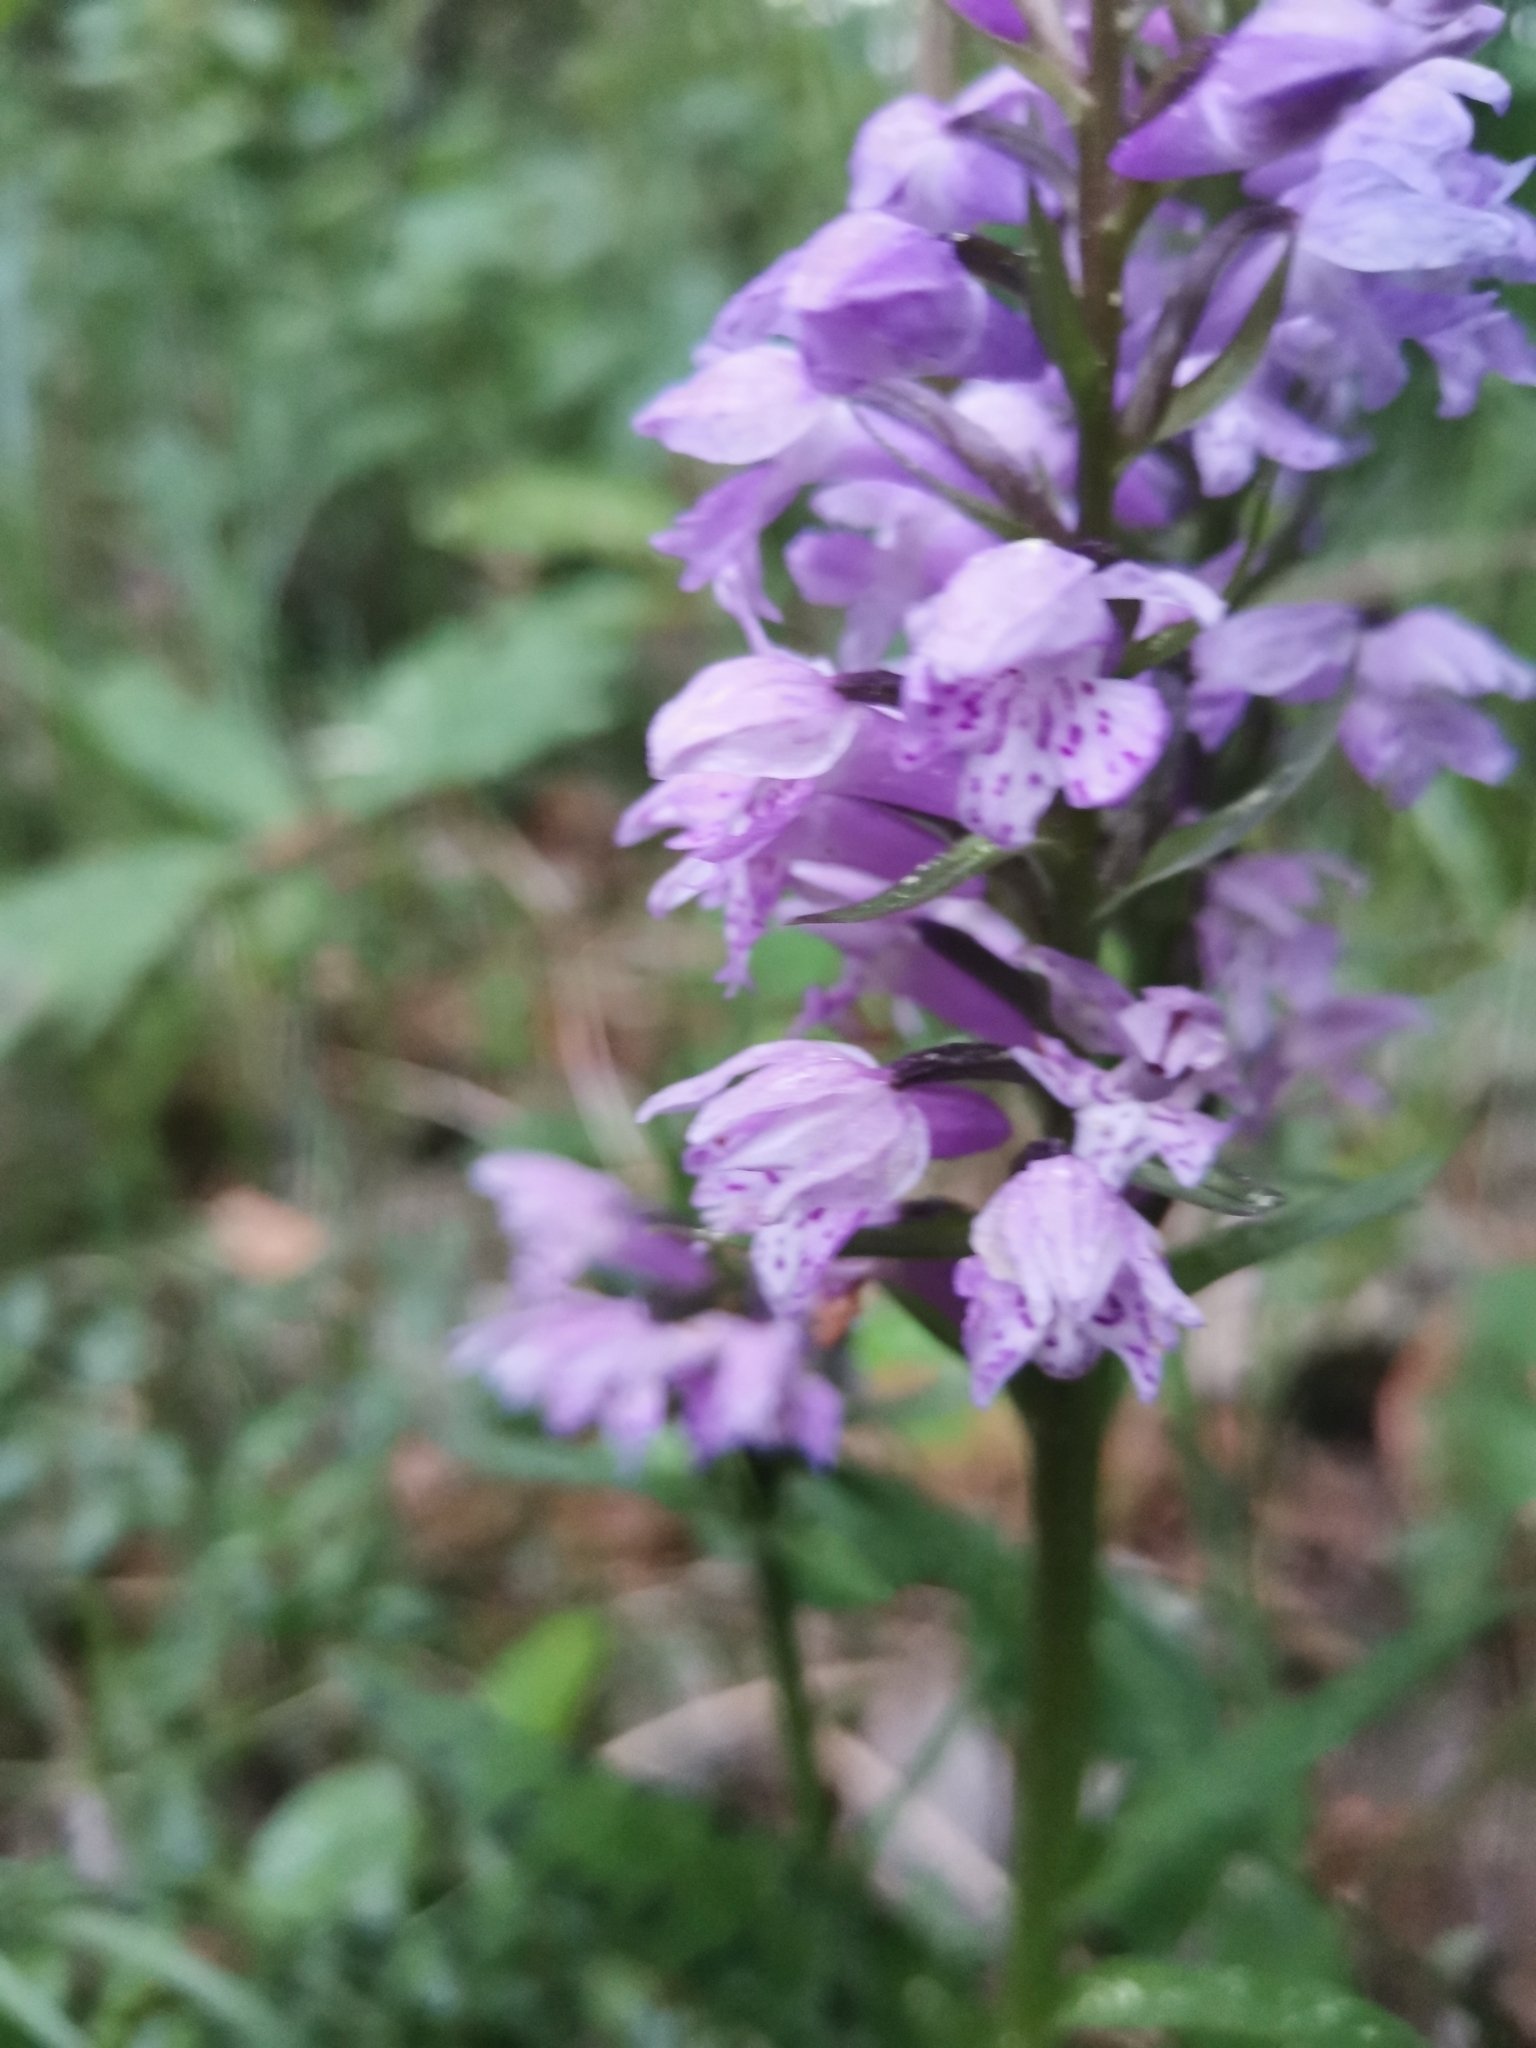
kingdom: Plantae
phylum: Tracheophyta
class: Liliopsida
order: Asparagales
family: Orchidaceae
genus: Dactylorhiza
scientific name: Dactylorhiza maculata
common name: Heath spotted-orchid
